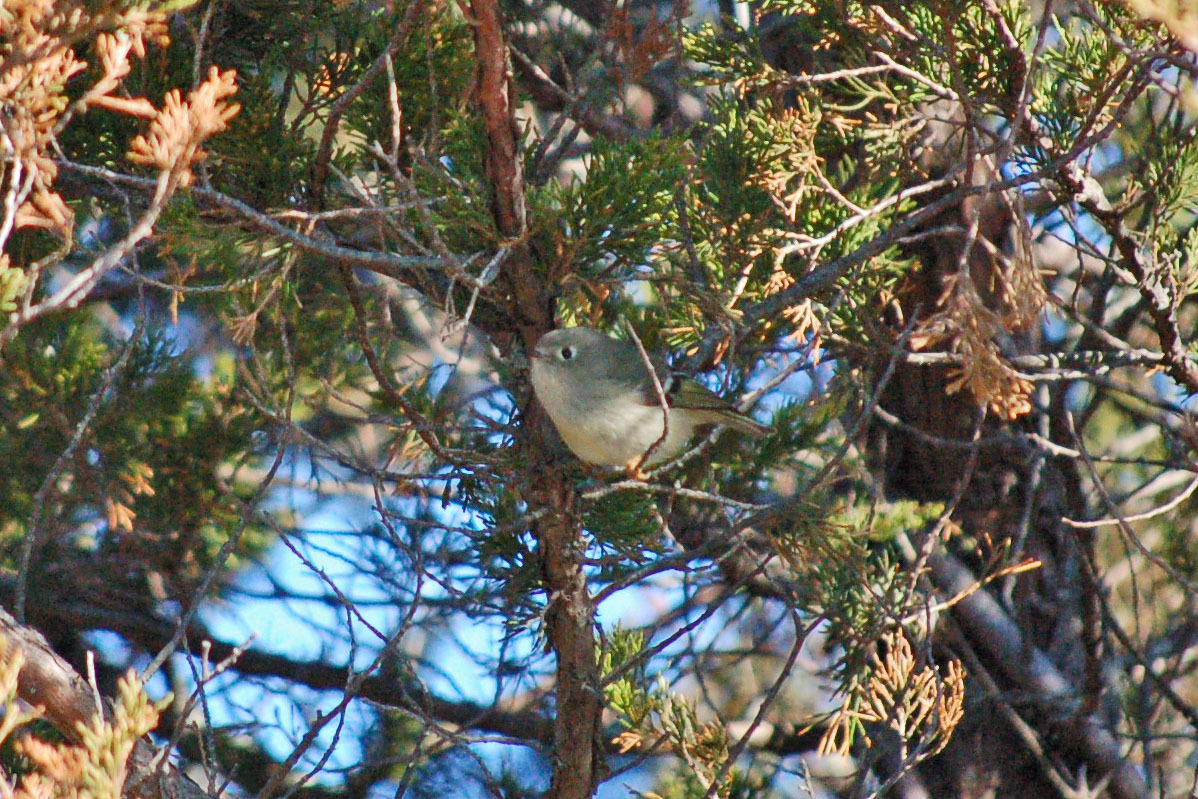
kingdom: Animalia
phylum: Chordata
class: Aves
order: Passeriformes
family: Regulidae
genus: Regulus
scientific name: Regulus calendula
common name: Ruby-crowned kinglet
